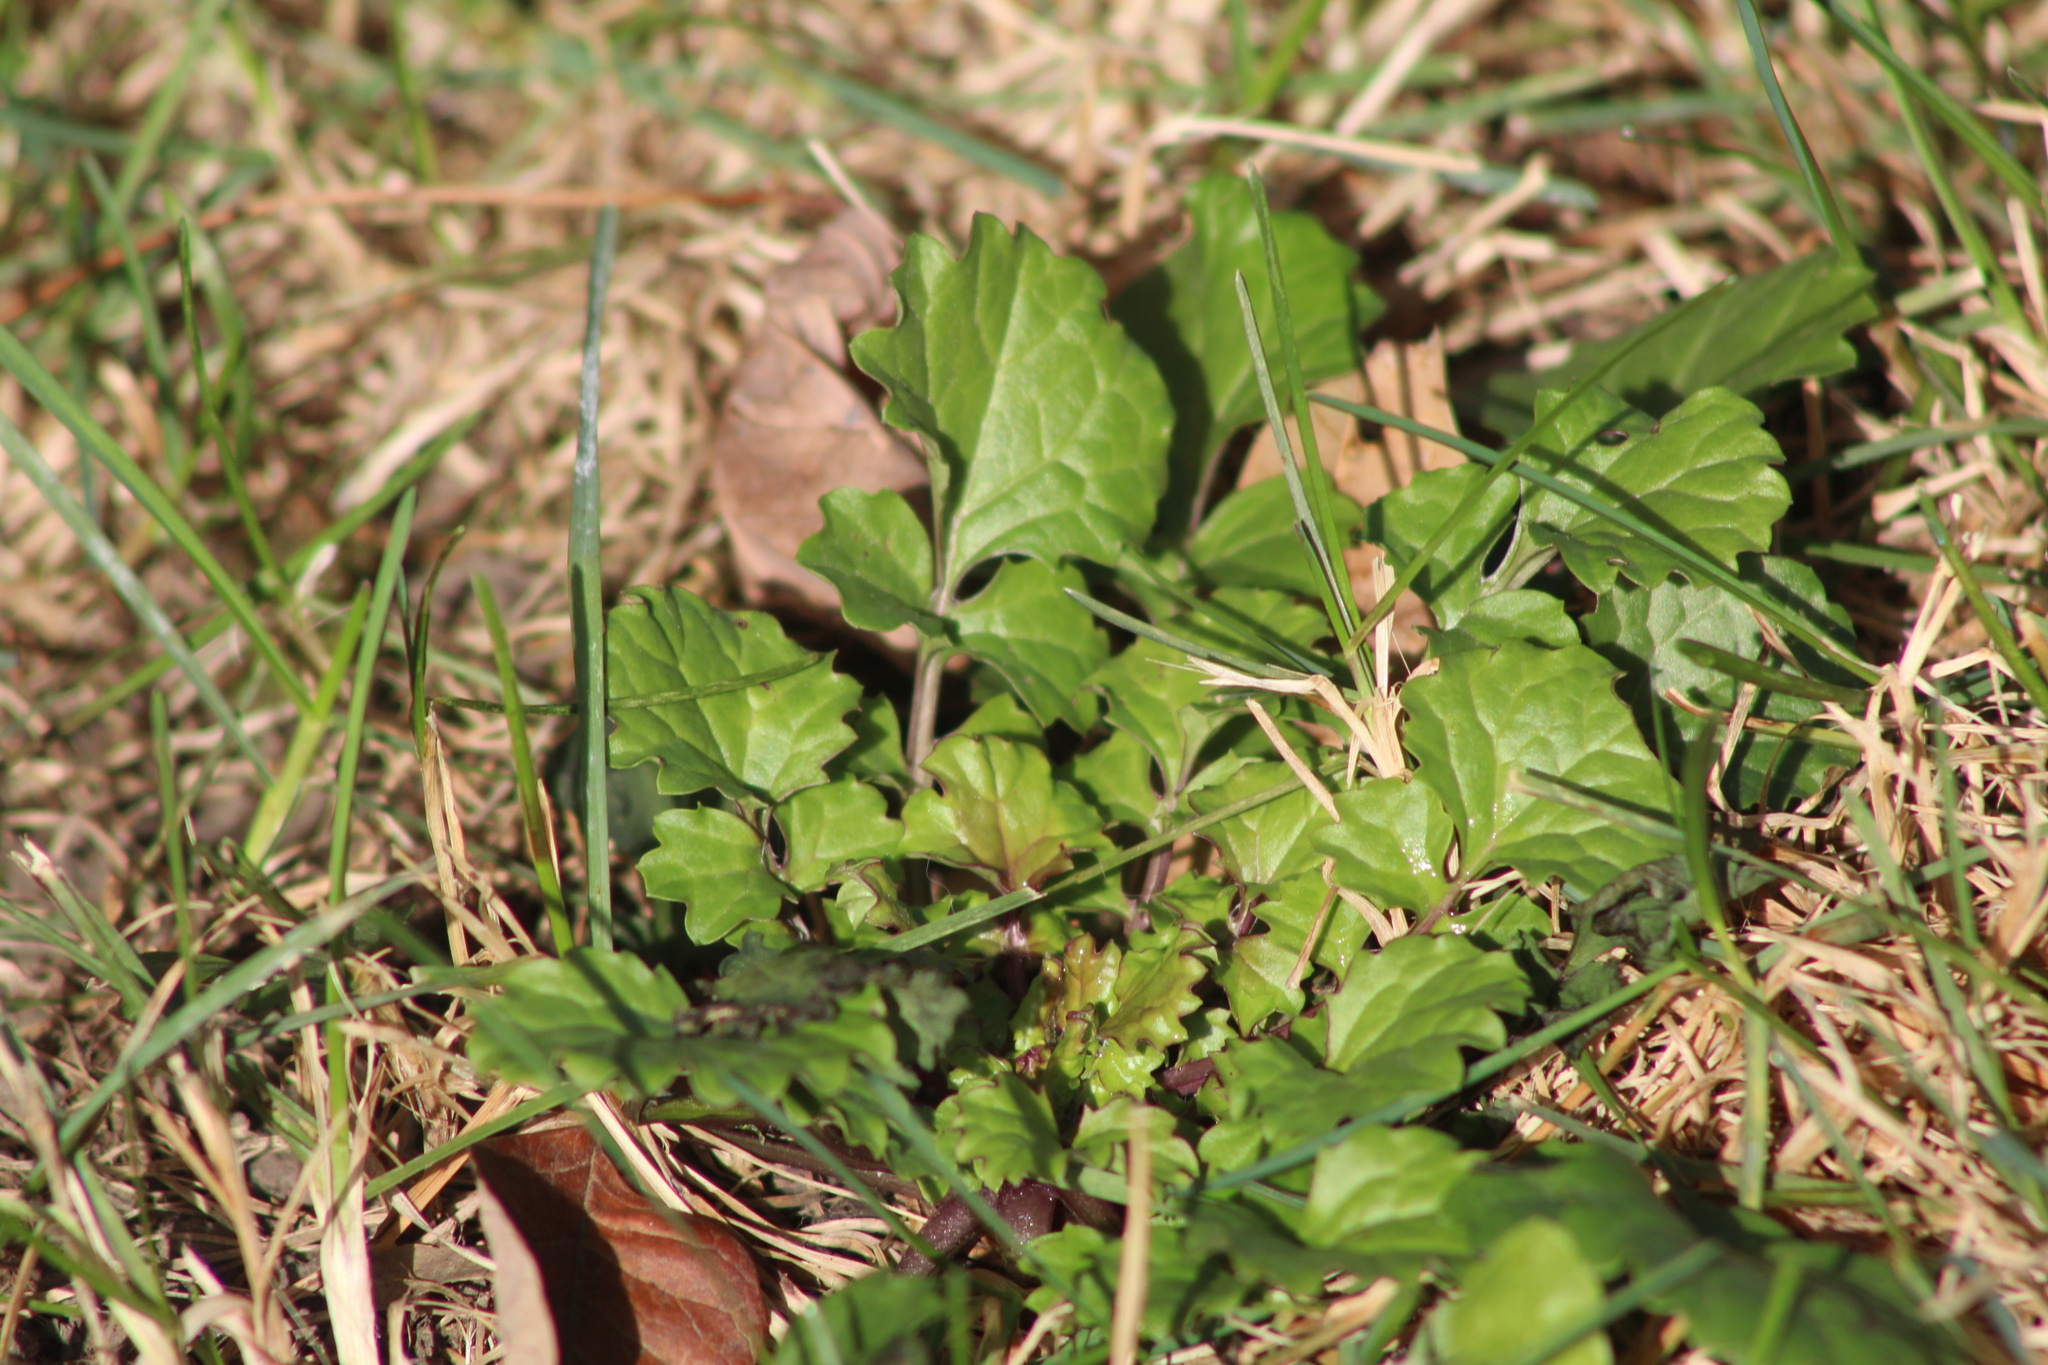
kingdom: Plantae
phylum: Tracheophyta
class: Magnoliopsida
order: Asterales
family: Asteraceae
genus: Packera
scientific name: Packera glabella
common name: Butterweed
